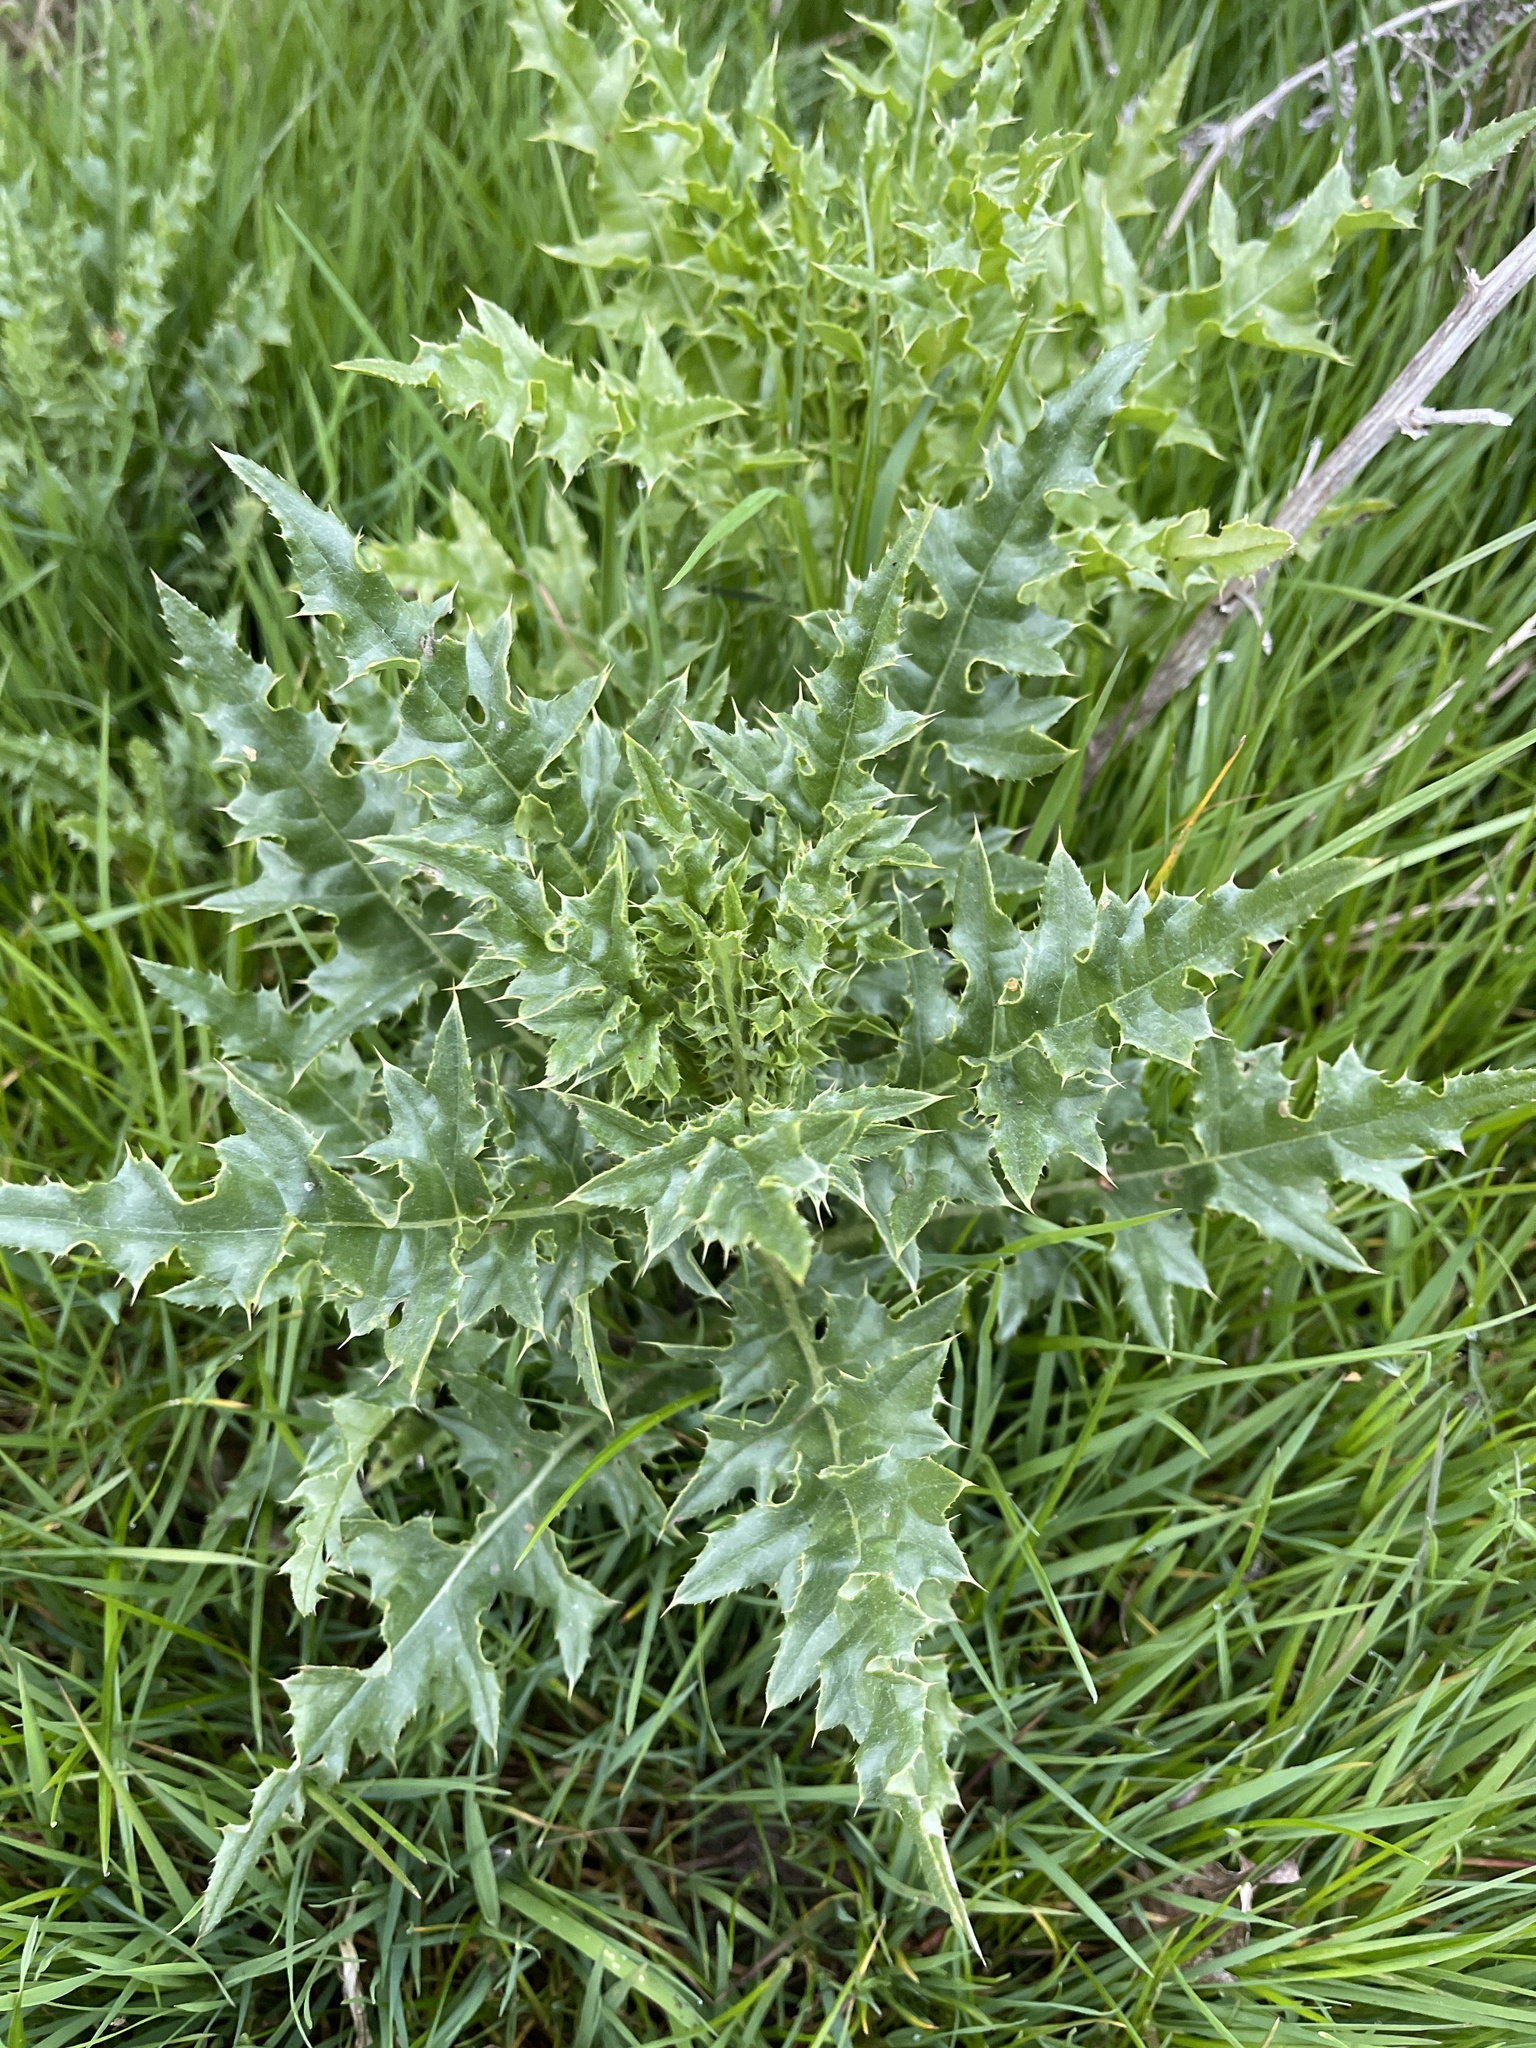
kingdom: Plantae
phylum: Tracheophyta
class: Magnoliopsida
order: Asterales
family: Asteraceae
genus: Cirsium
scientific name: Cirsium arvense
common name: Creeping thistle
